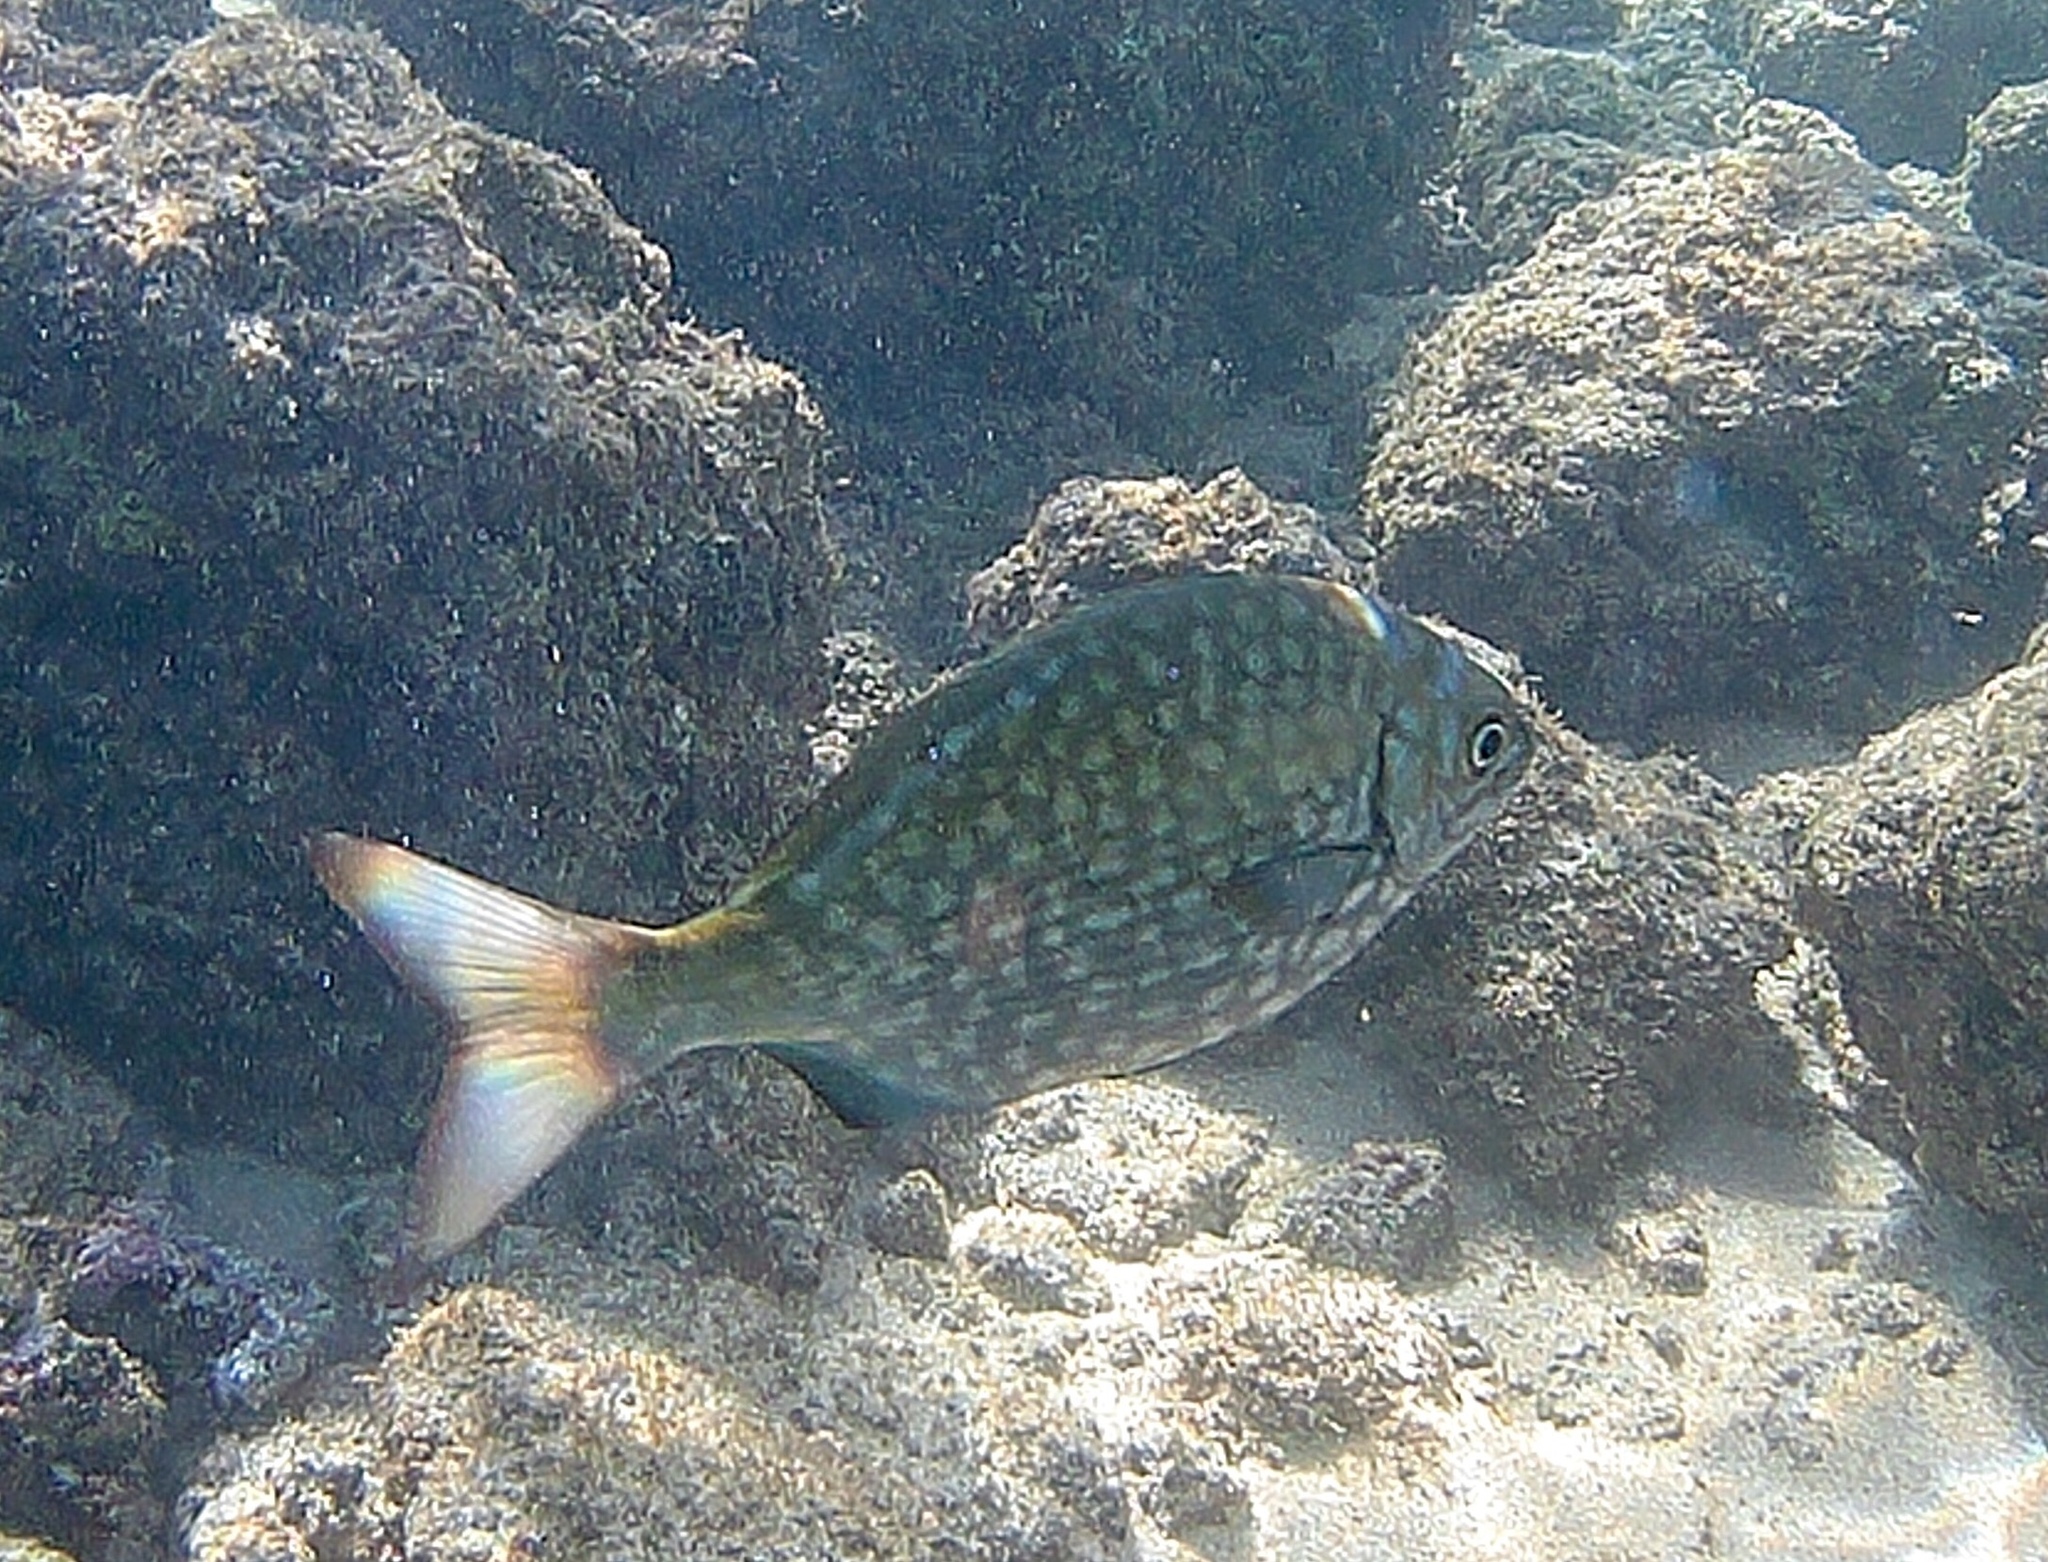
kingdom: Animalia
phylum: Chordata
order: Perciformes
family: Kyphosidae
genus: Kyphosus
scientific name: Kyphosus vaigiensis
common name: Brassy chub
